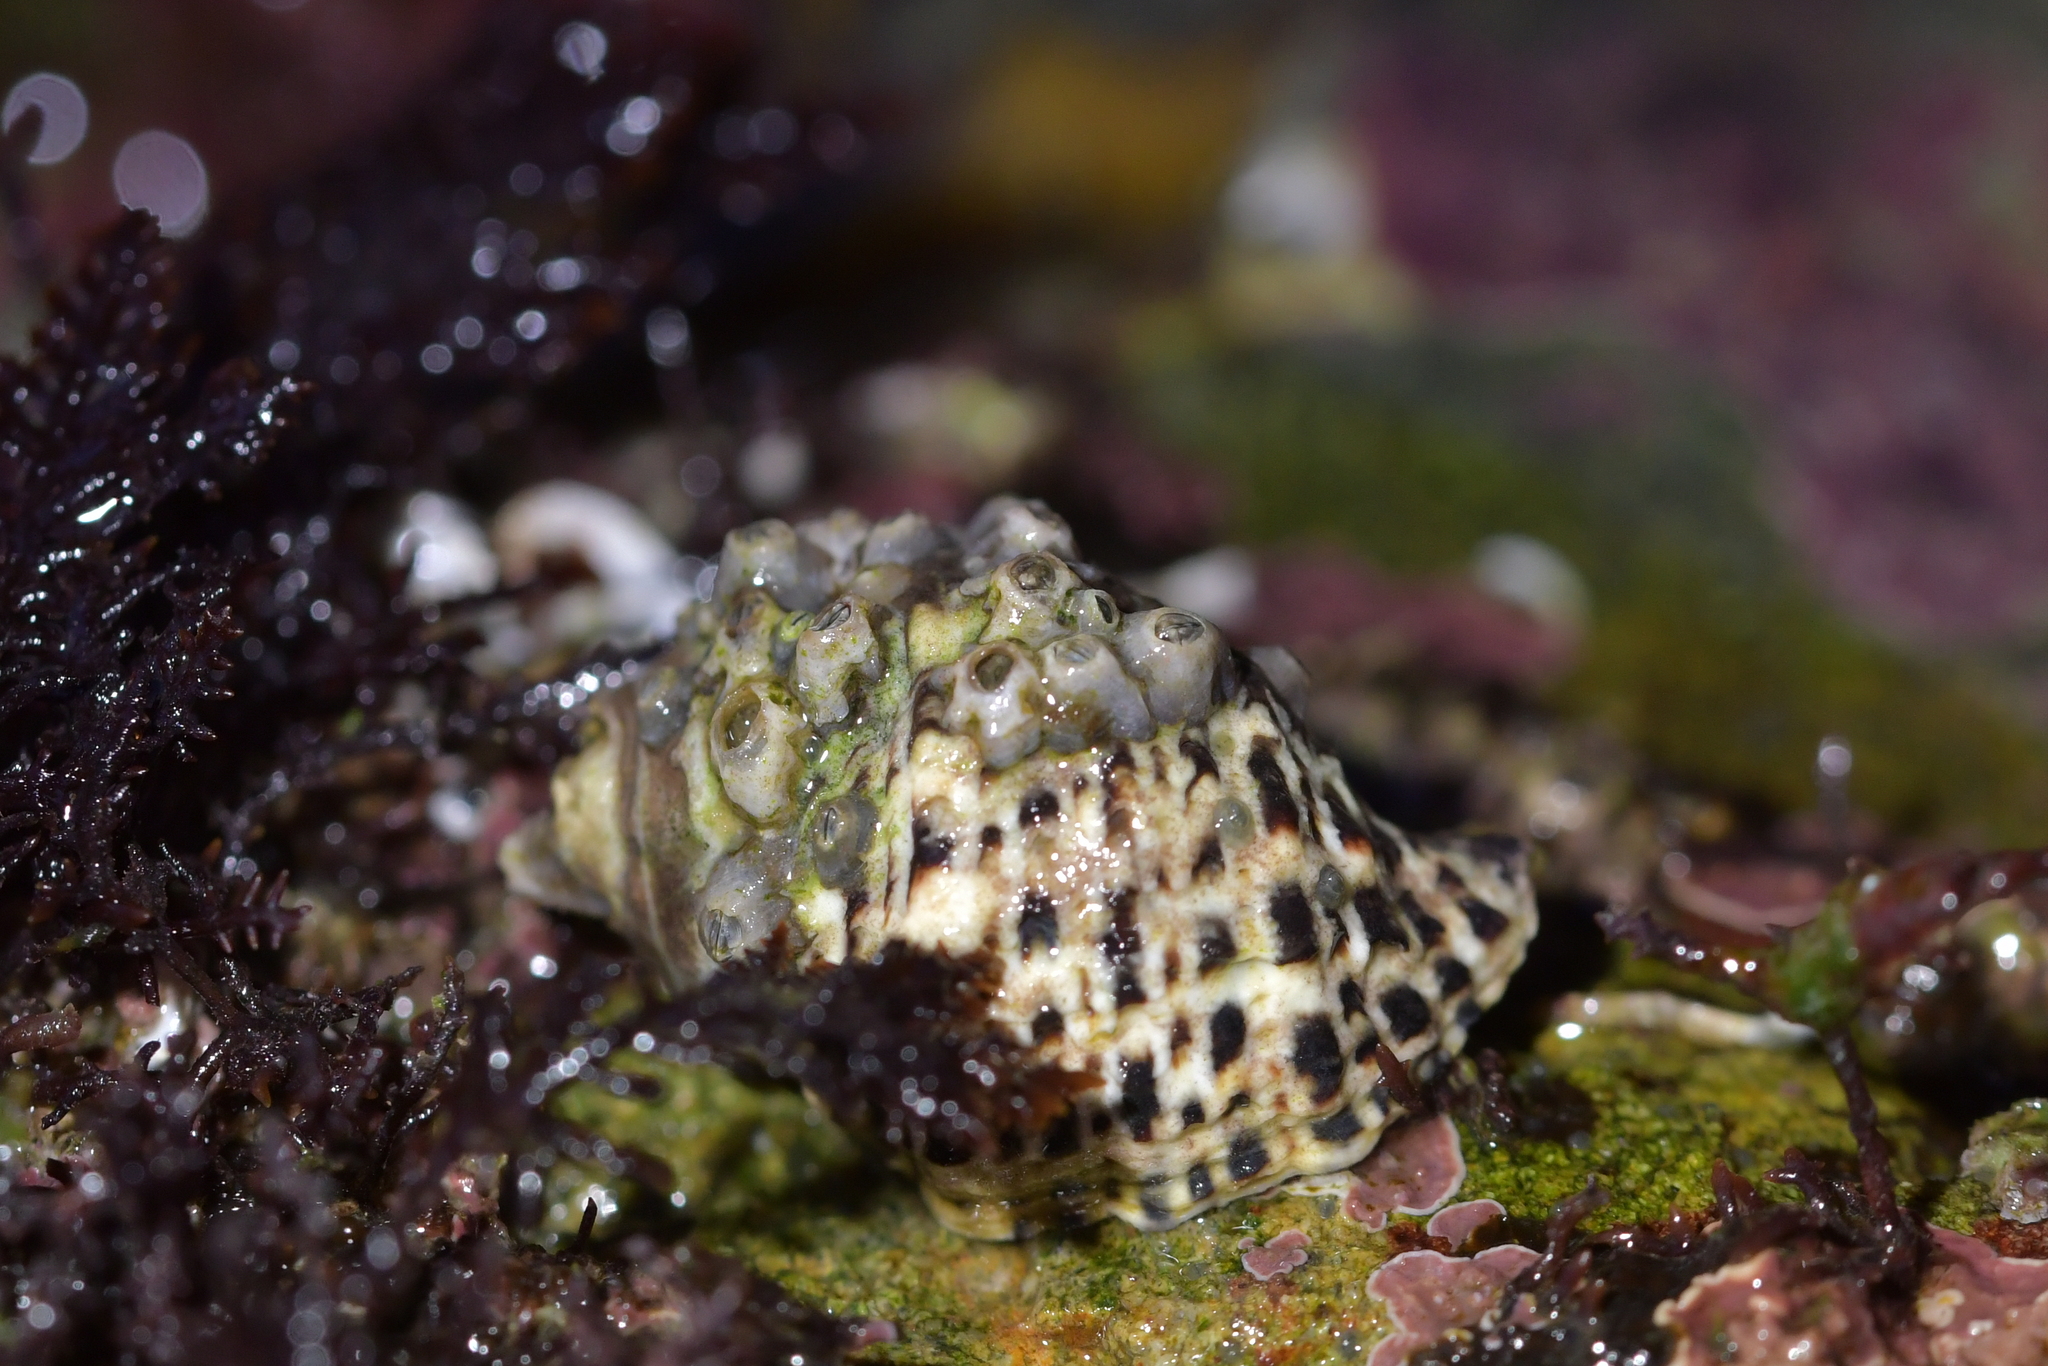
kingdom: Animalia
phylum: Mollusca
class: Gastropoda
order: Neogastropoda
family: Muricidae
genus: Haustrum
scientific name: Haustrum scobina
